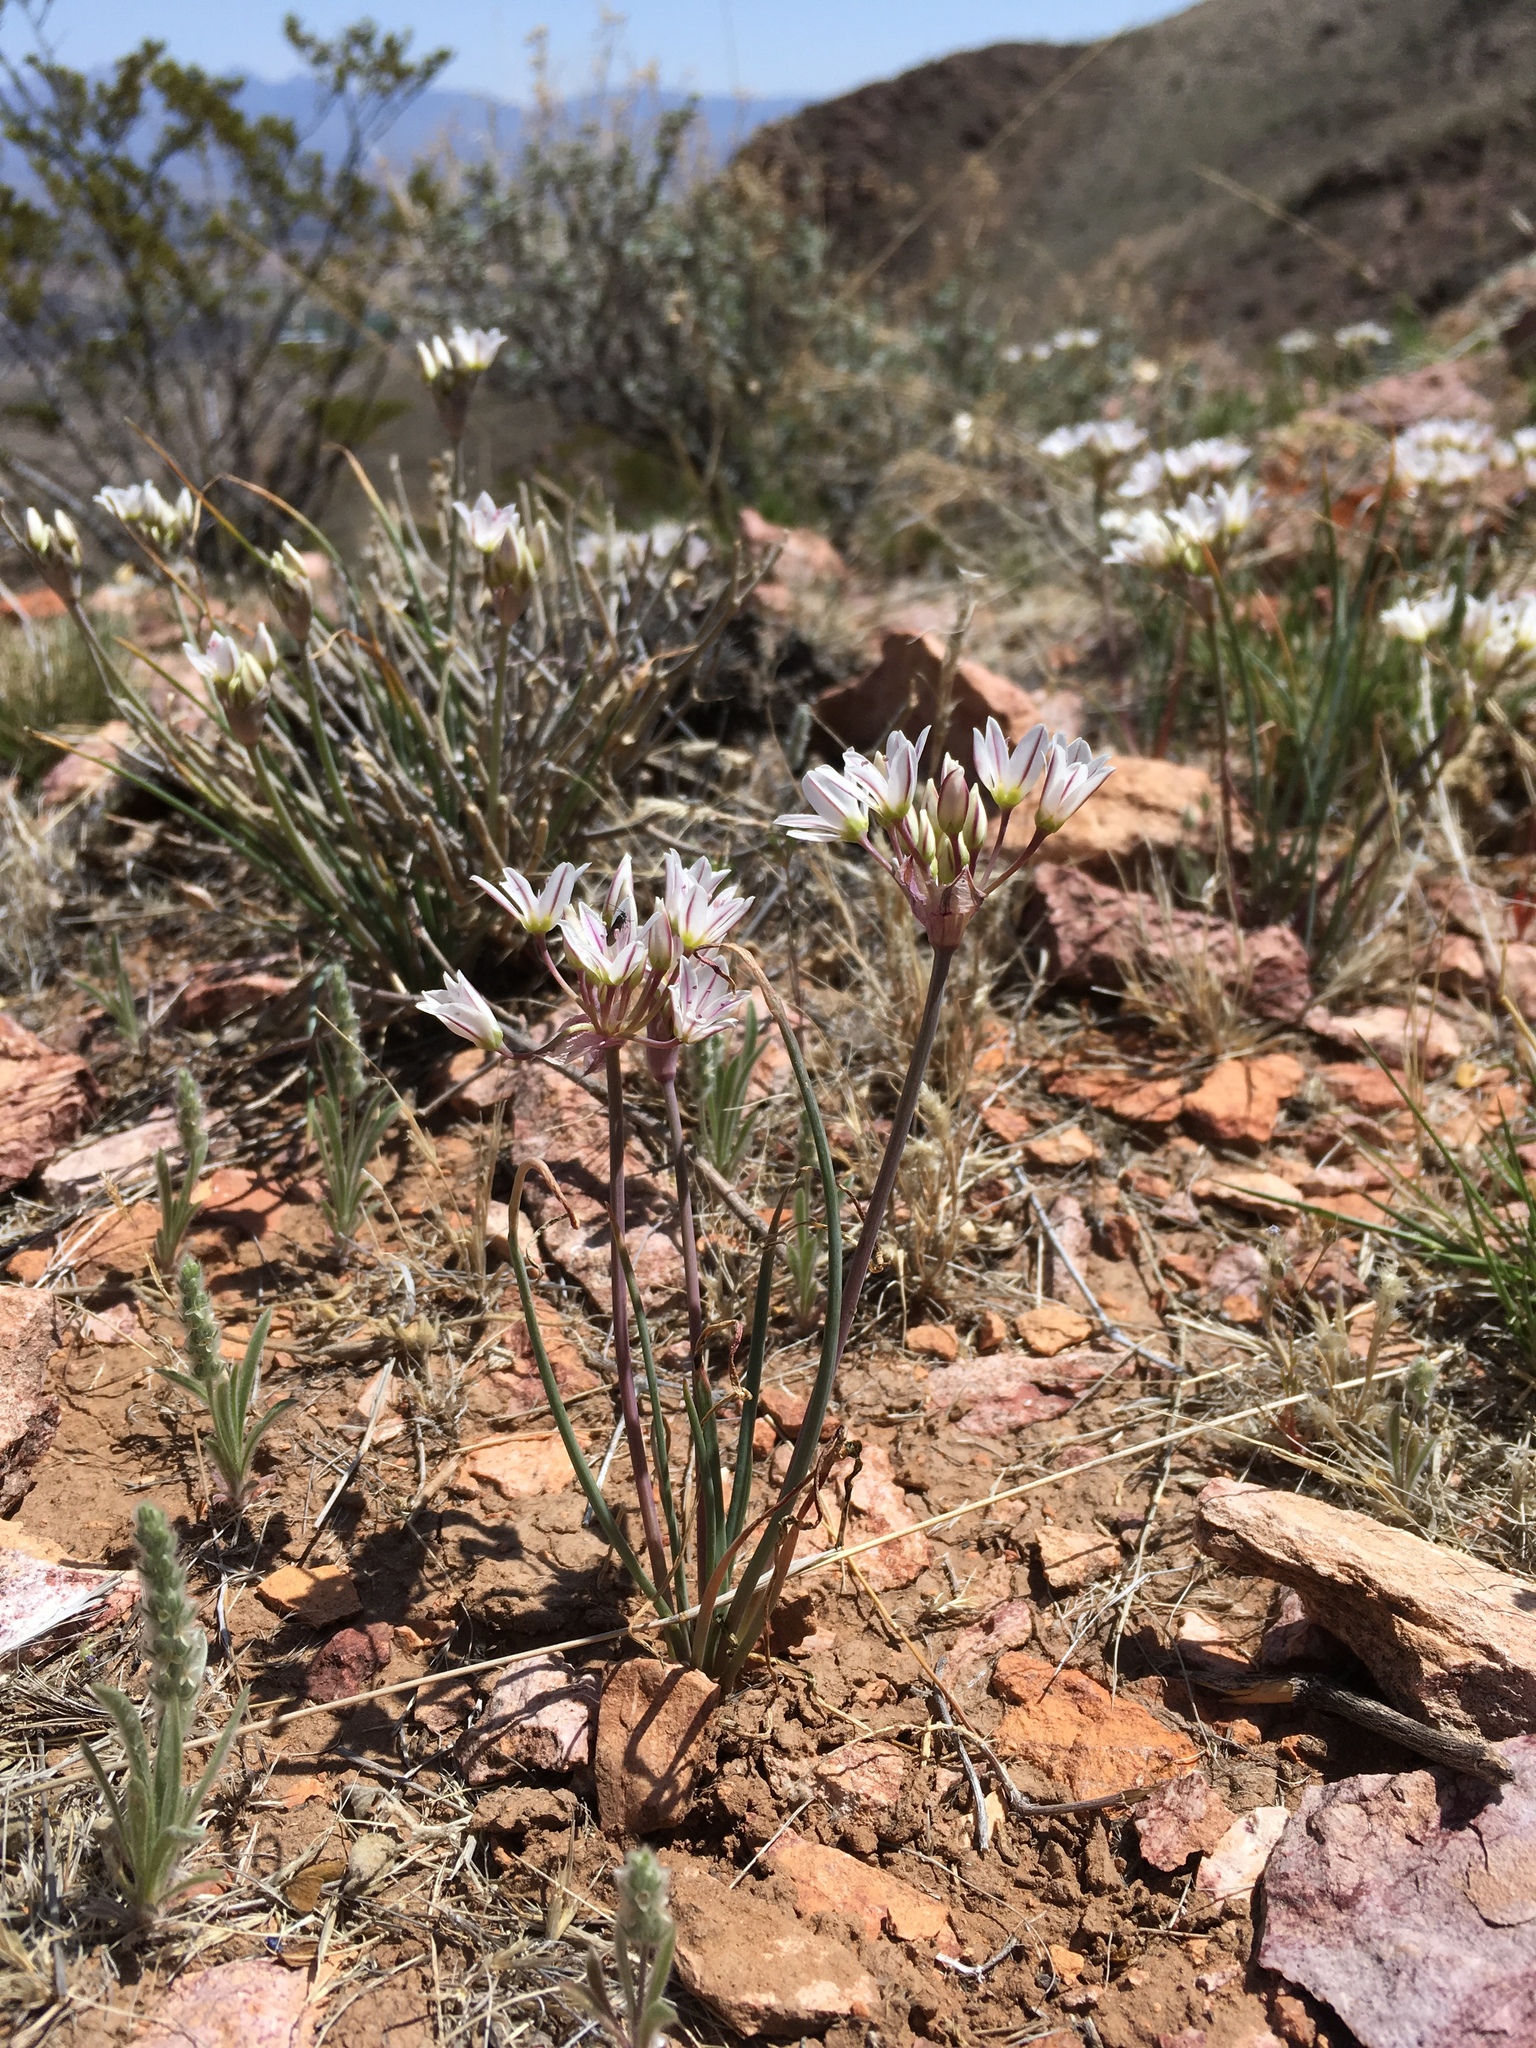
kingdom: Plantae
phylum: Tracheophyta
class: Liliopsida
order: Asparagales
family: Amaryllidaceae
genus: Allium
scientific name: Allium macropetalum
